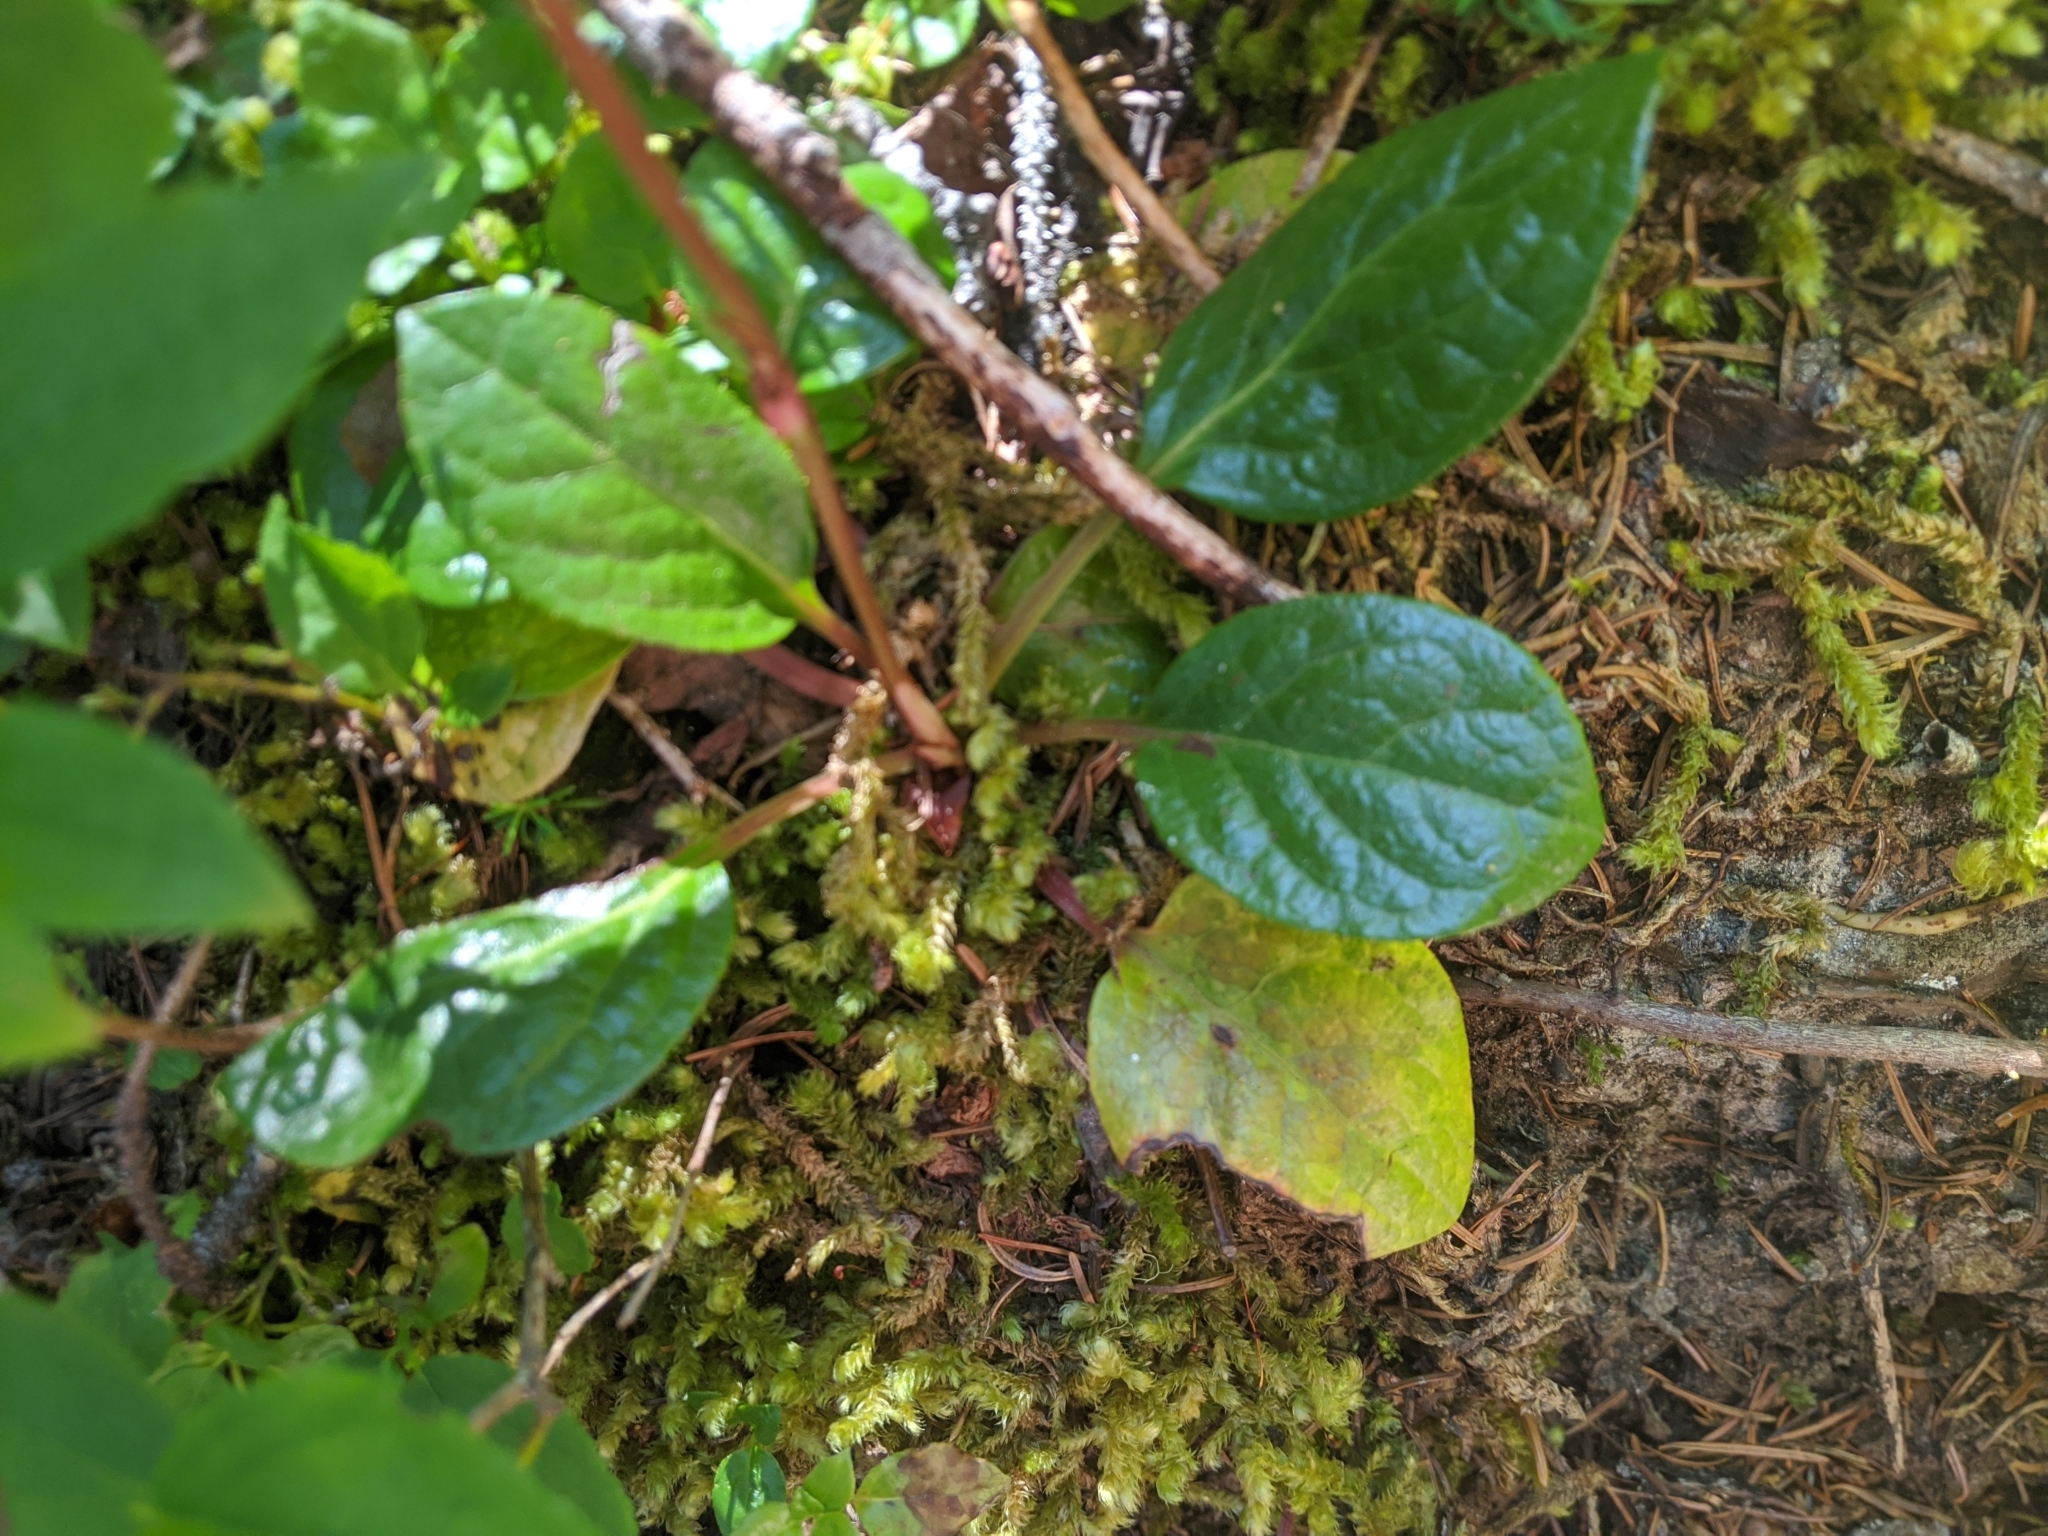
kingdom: Plantae
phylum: Tracheophyta
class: Magnoliopsida
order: Ericales
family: Ericaceae
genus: Pyrola
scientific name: Pyrola asarifolia
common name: Bog wintergreen
